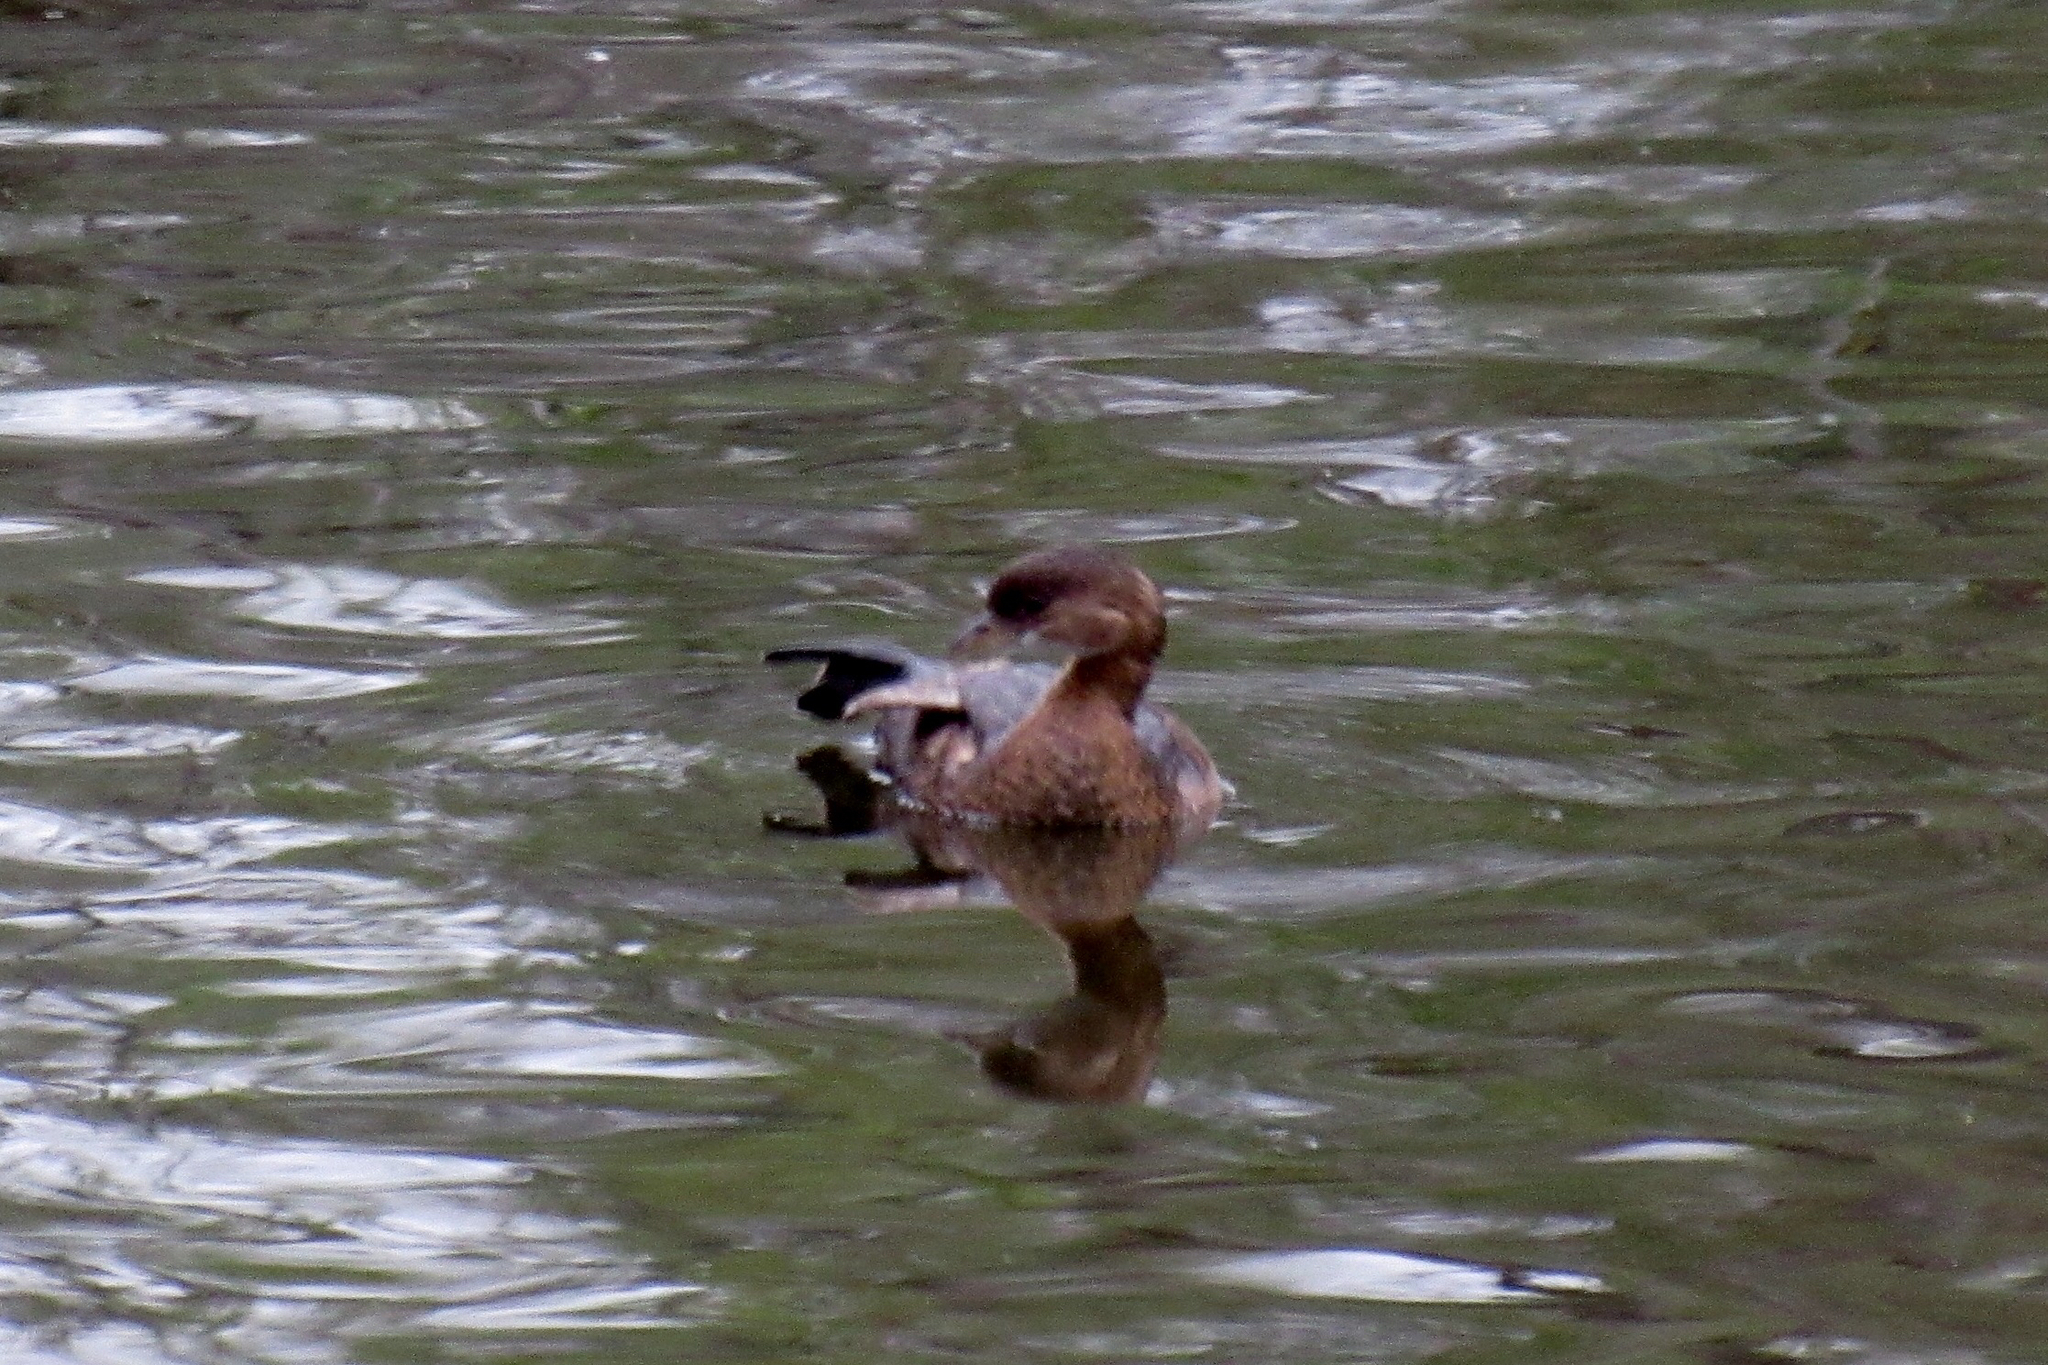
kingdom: Animalia
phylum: Chordata
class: Aves
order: Podicipediformes
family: Podicipedidae
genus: Podilymbus
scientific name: Podilymbus podiceps
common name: Pied-billed grebe
